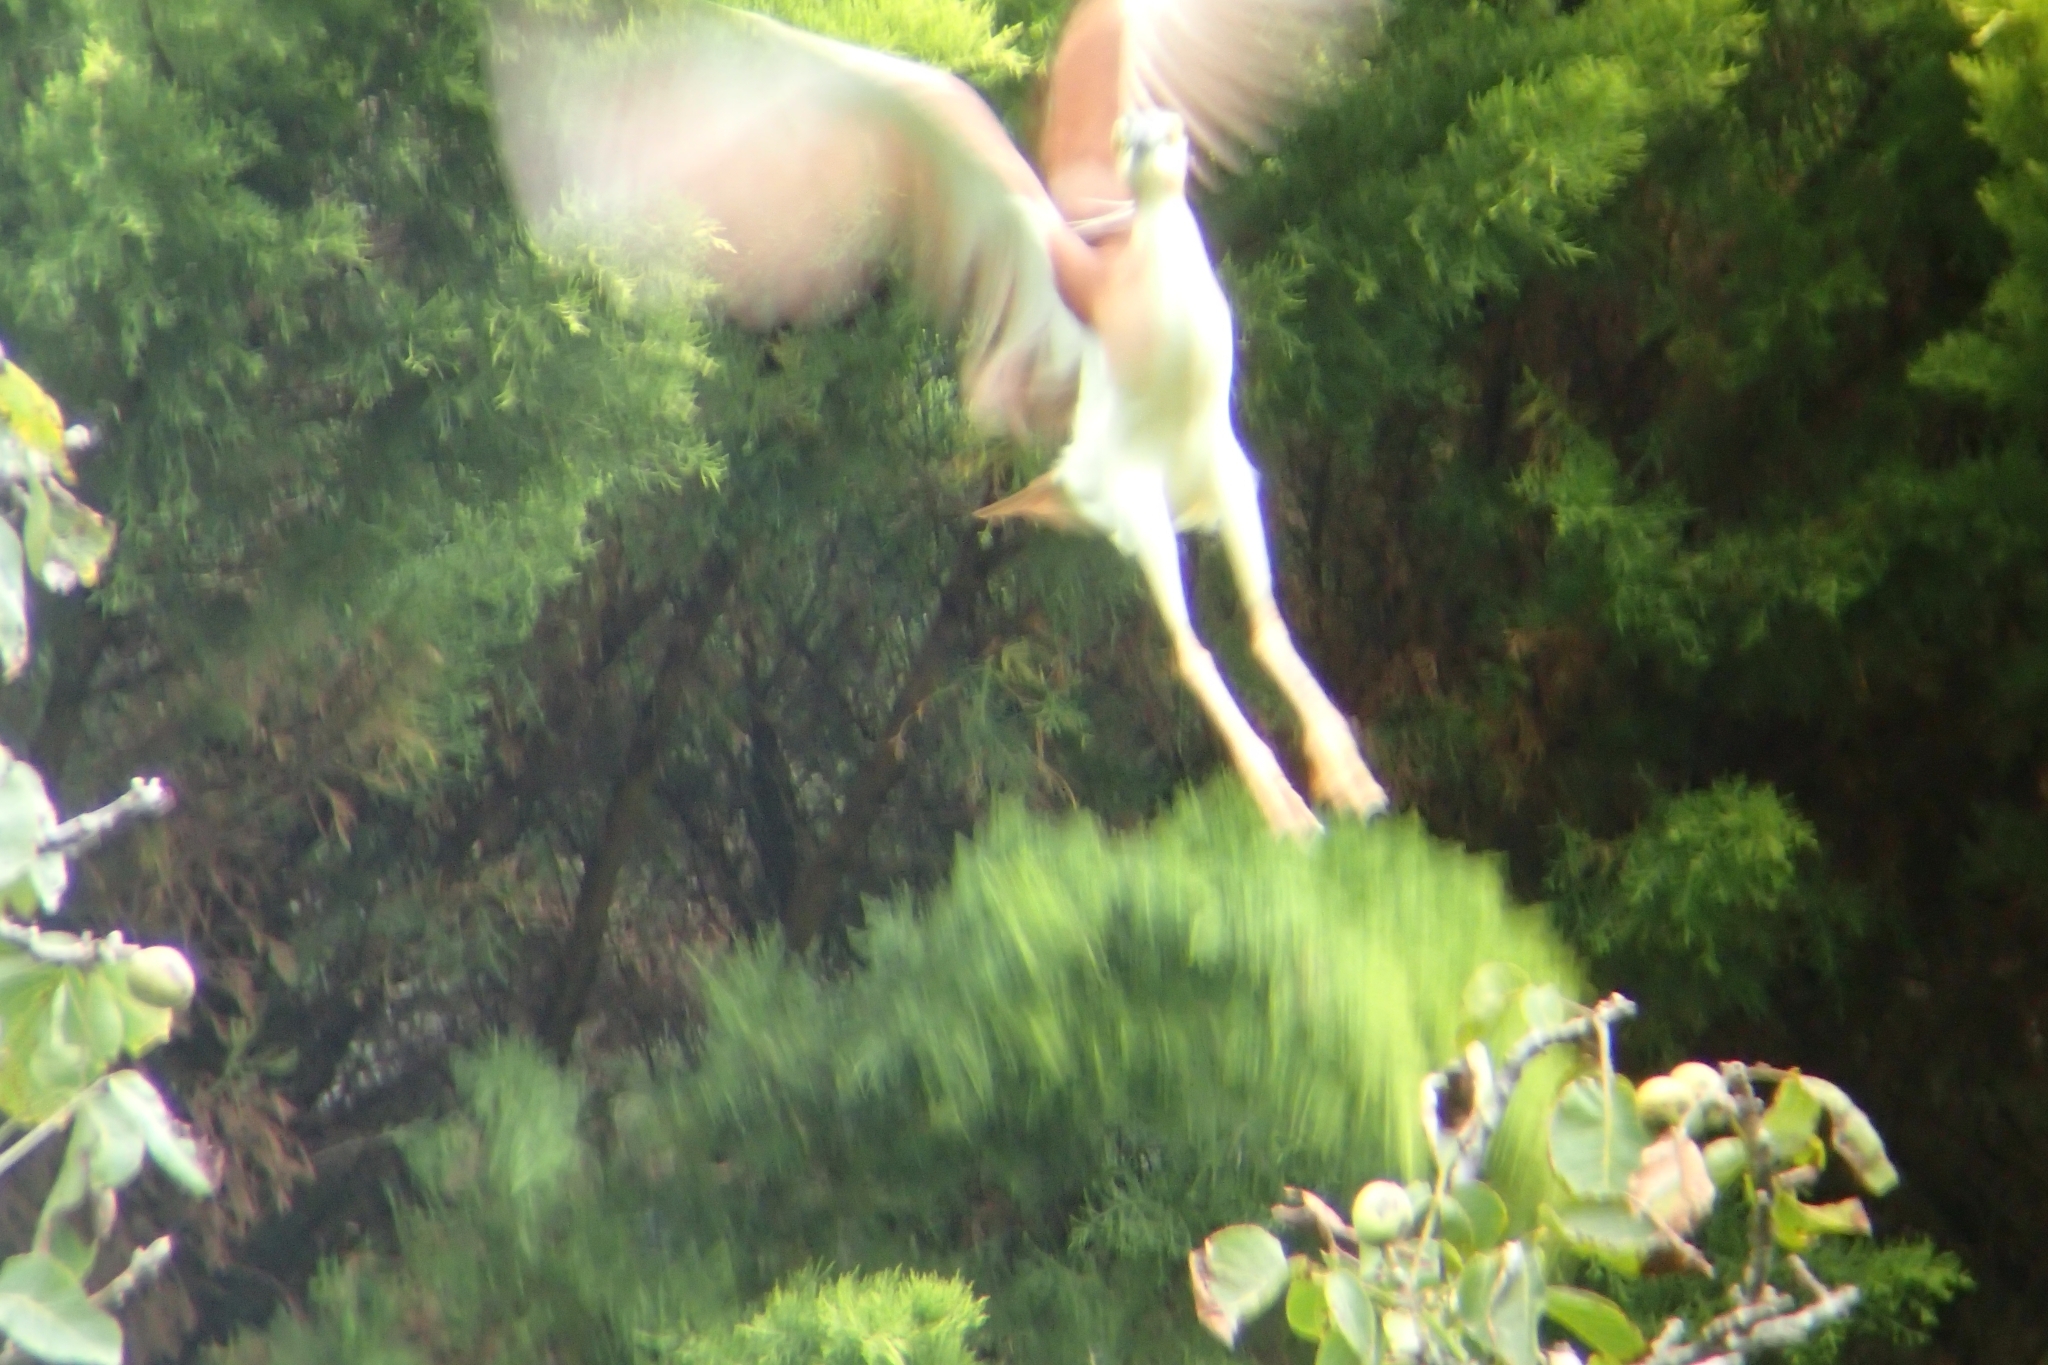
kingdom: Animalia
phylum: Chordata
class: Aves
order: Pelecaniformes
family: Ardeidae
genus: Nycticorax
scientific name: Nycticorax caledonicus
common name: Rufous night-heron
